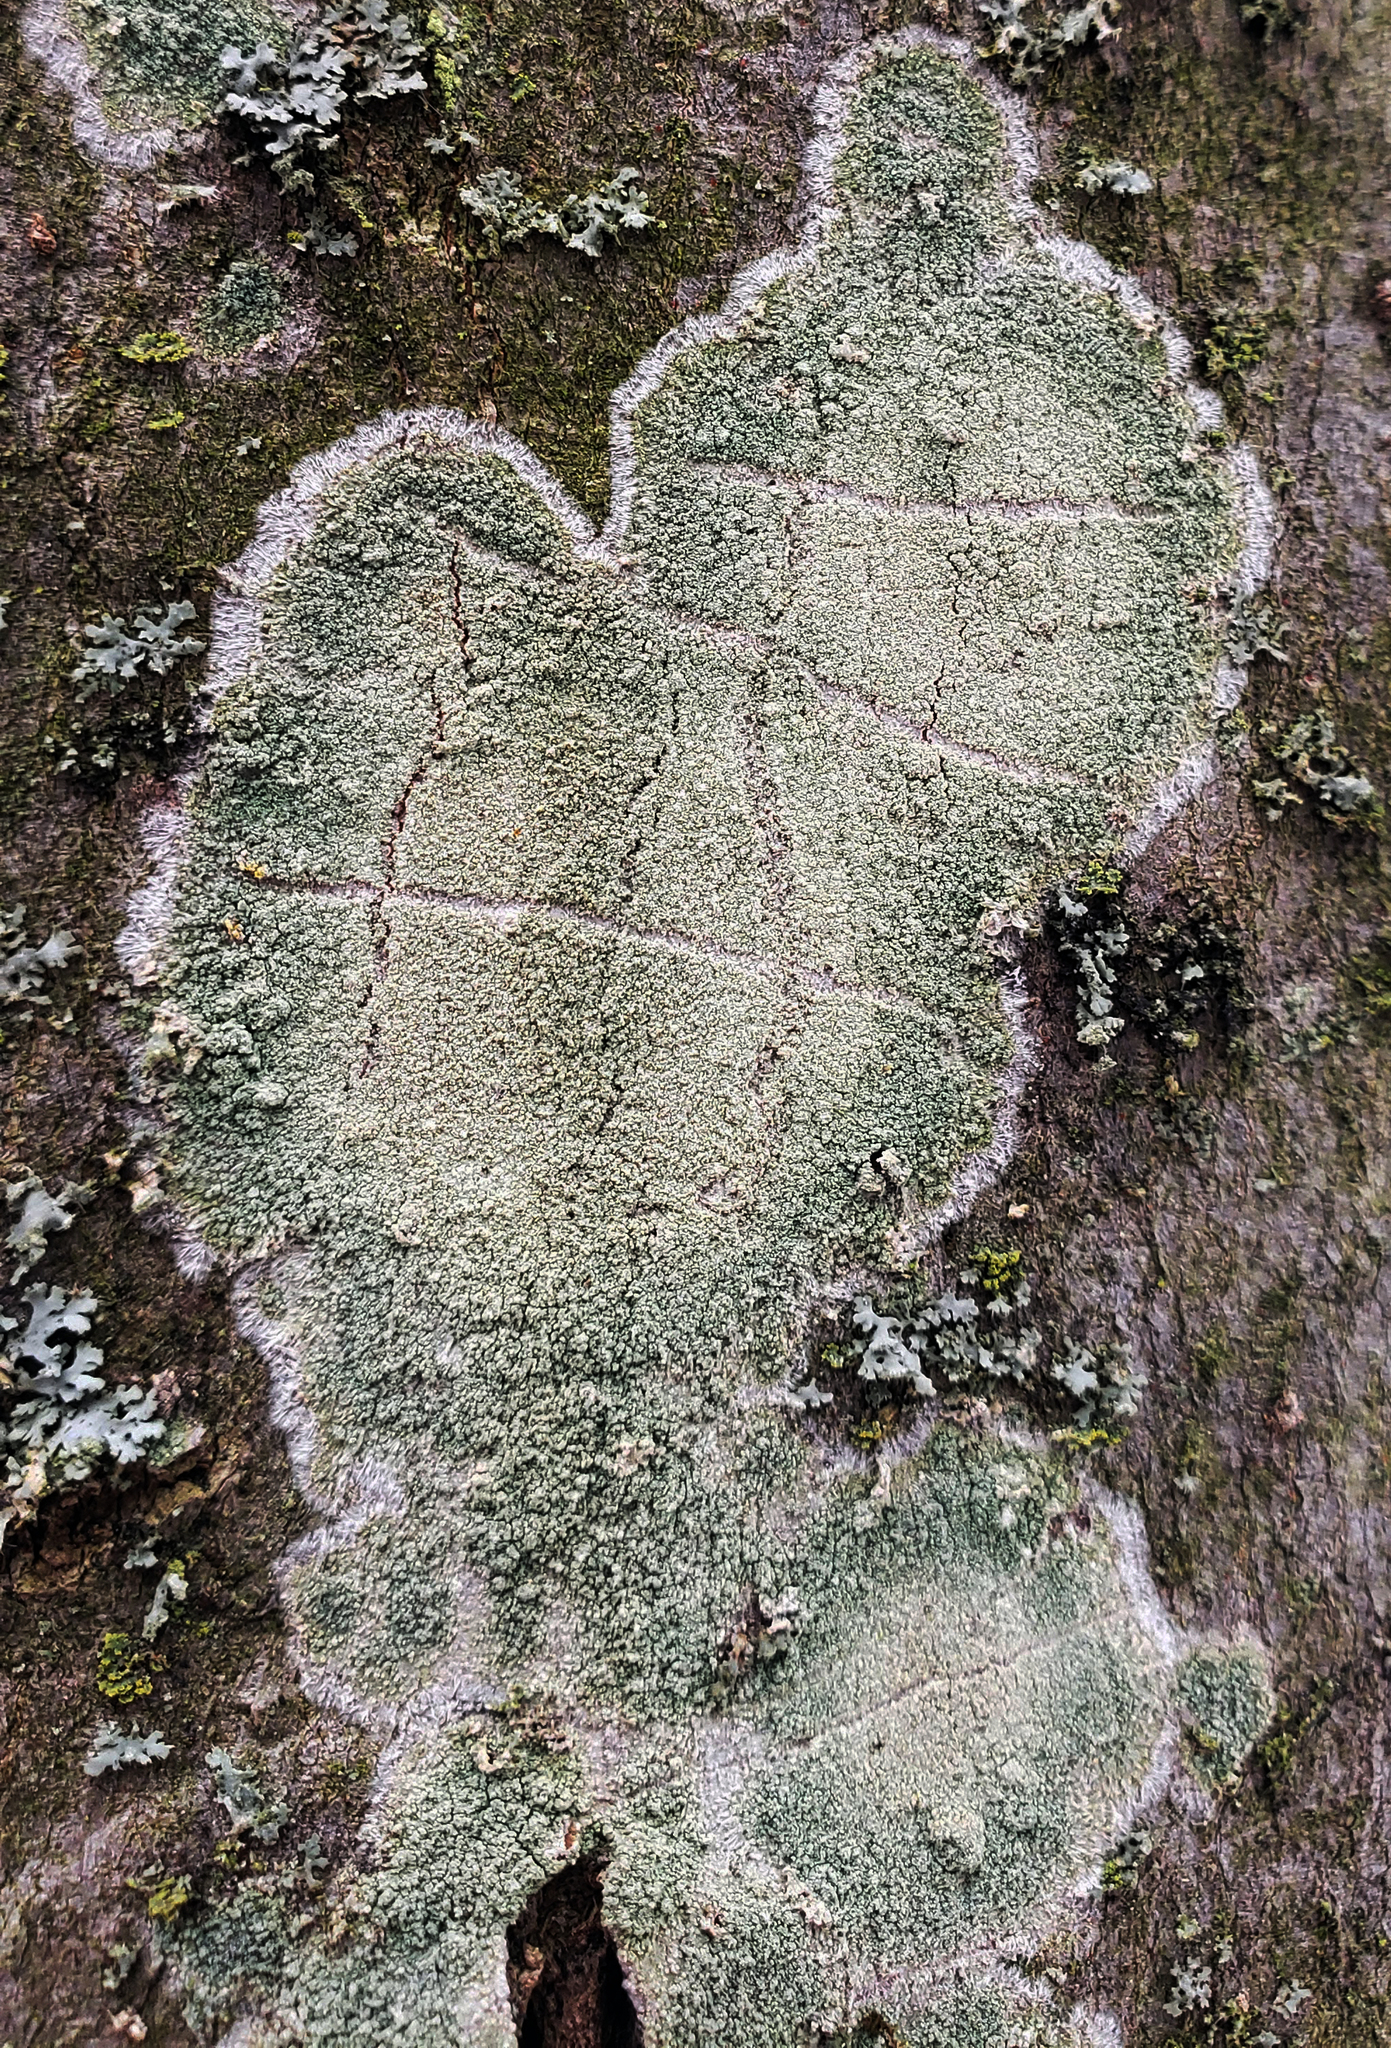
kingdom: Fungi
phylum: Ascomycota
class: Lecanoromycetes
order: Pertusariales
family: Pertusariaceae
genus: Verseghya
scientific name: Verseghya thysanophora
